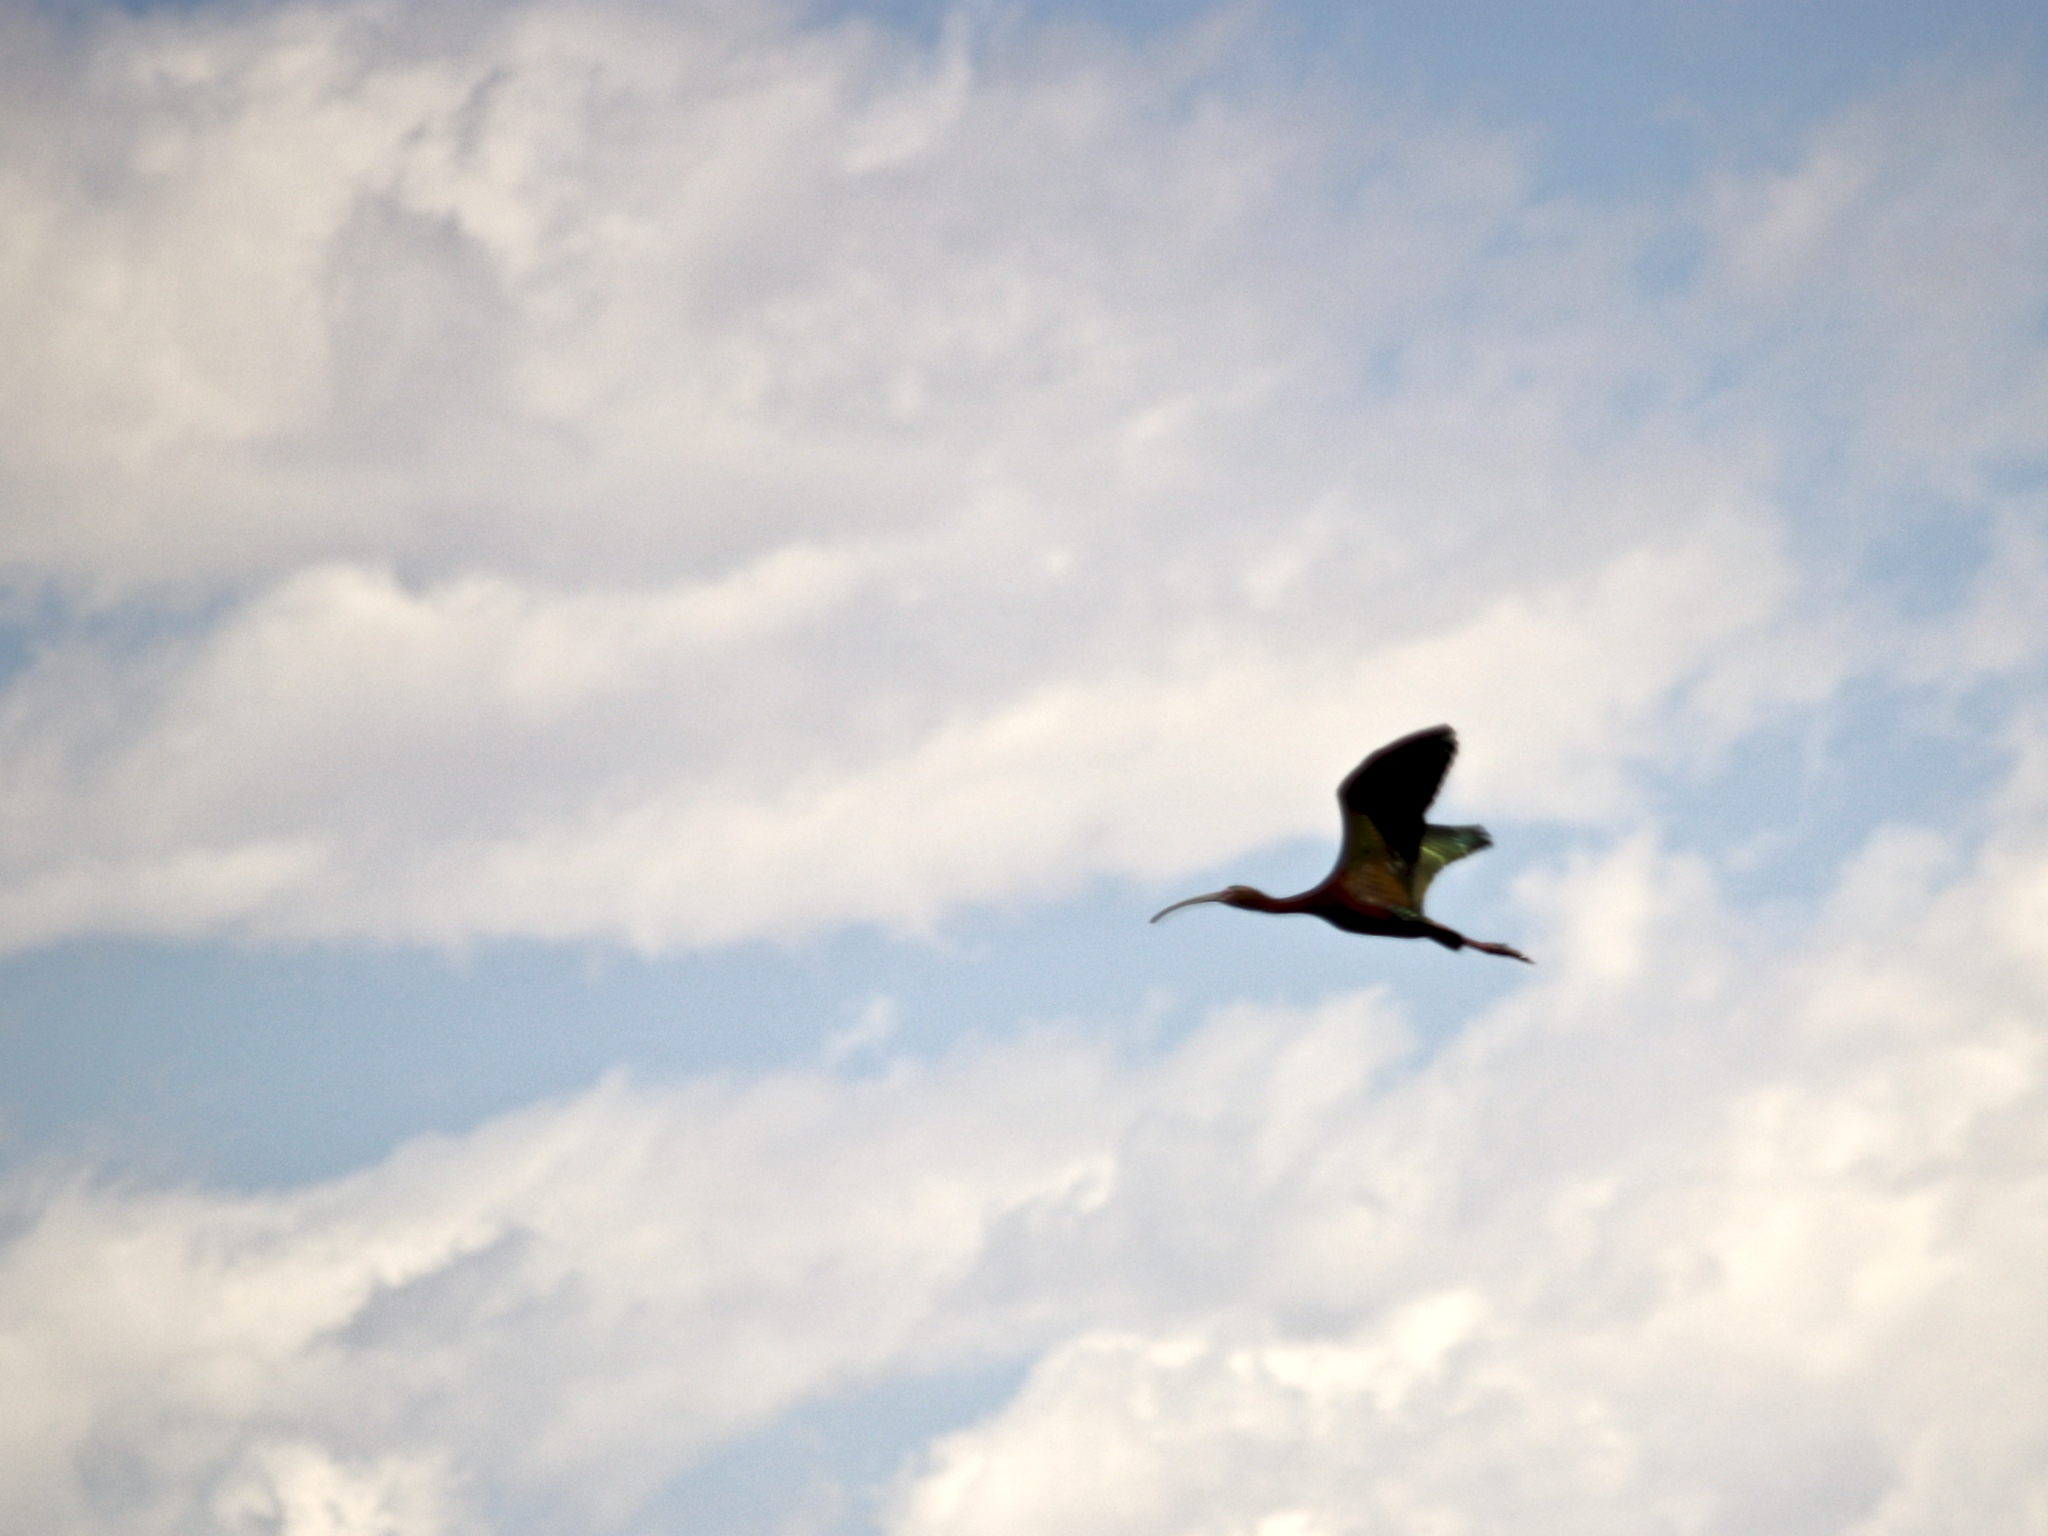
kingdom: Animalia
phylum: Chordata
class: Aves
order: Pelecaniformes
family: Threskiornithidae
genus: Plegadis
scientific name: Plegadis chihi
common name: White-faced ibis
